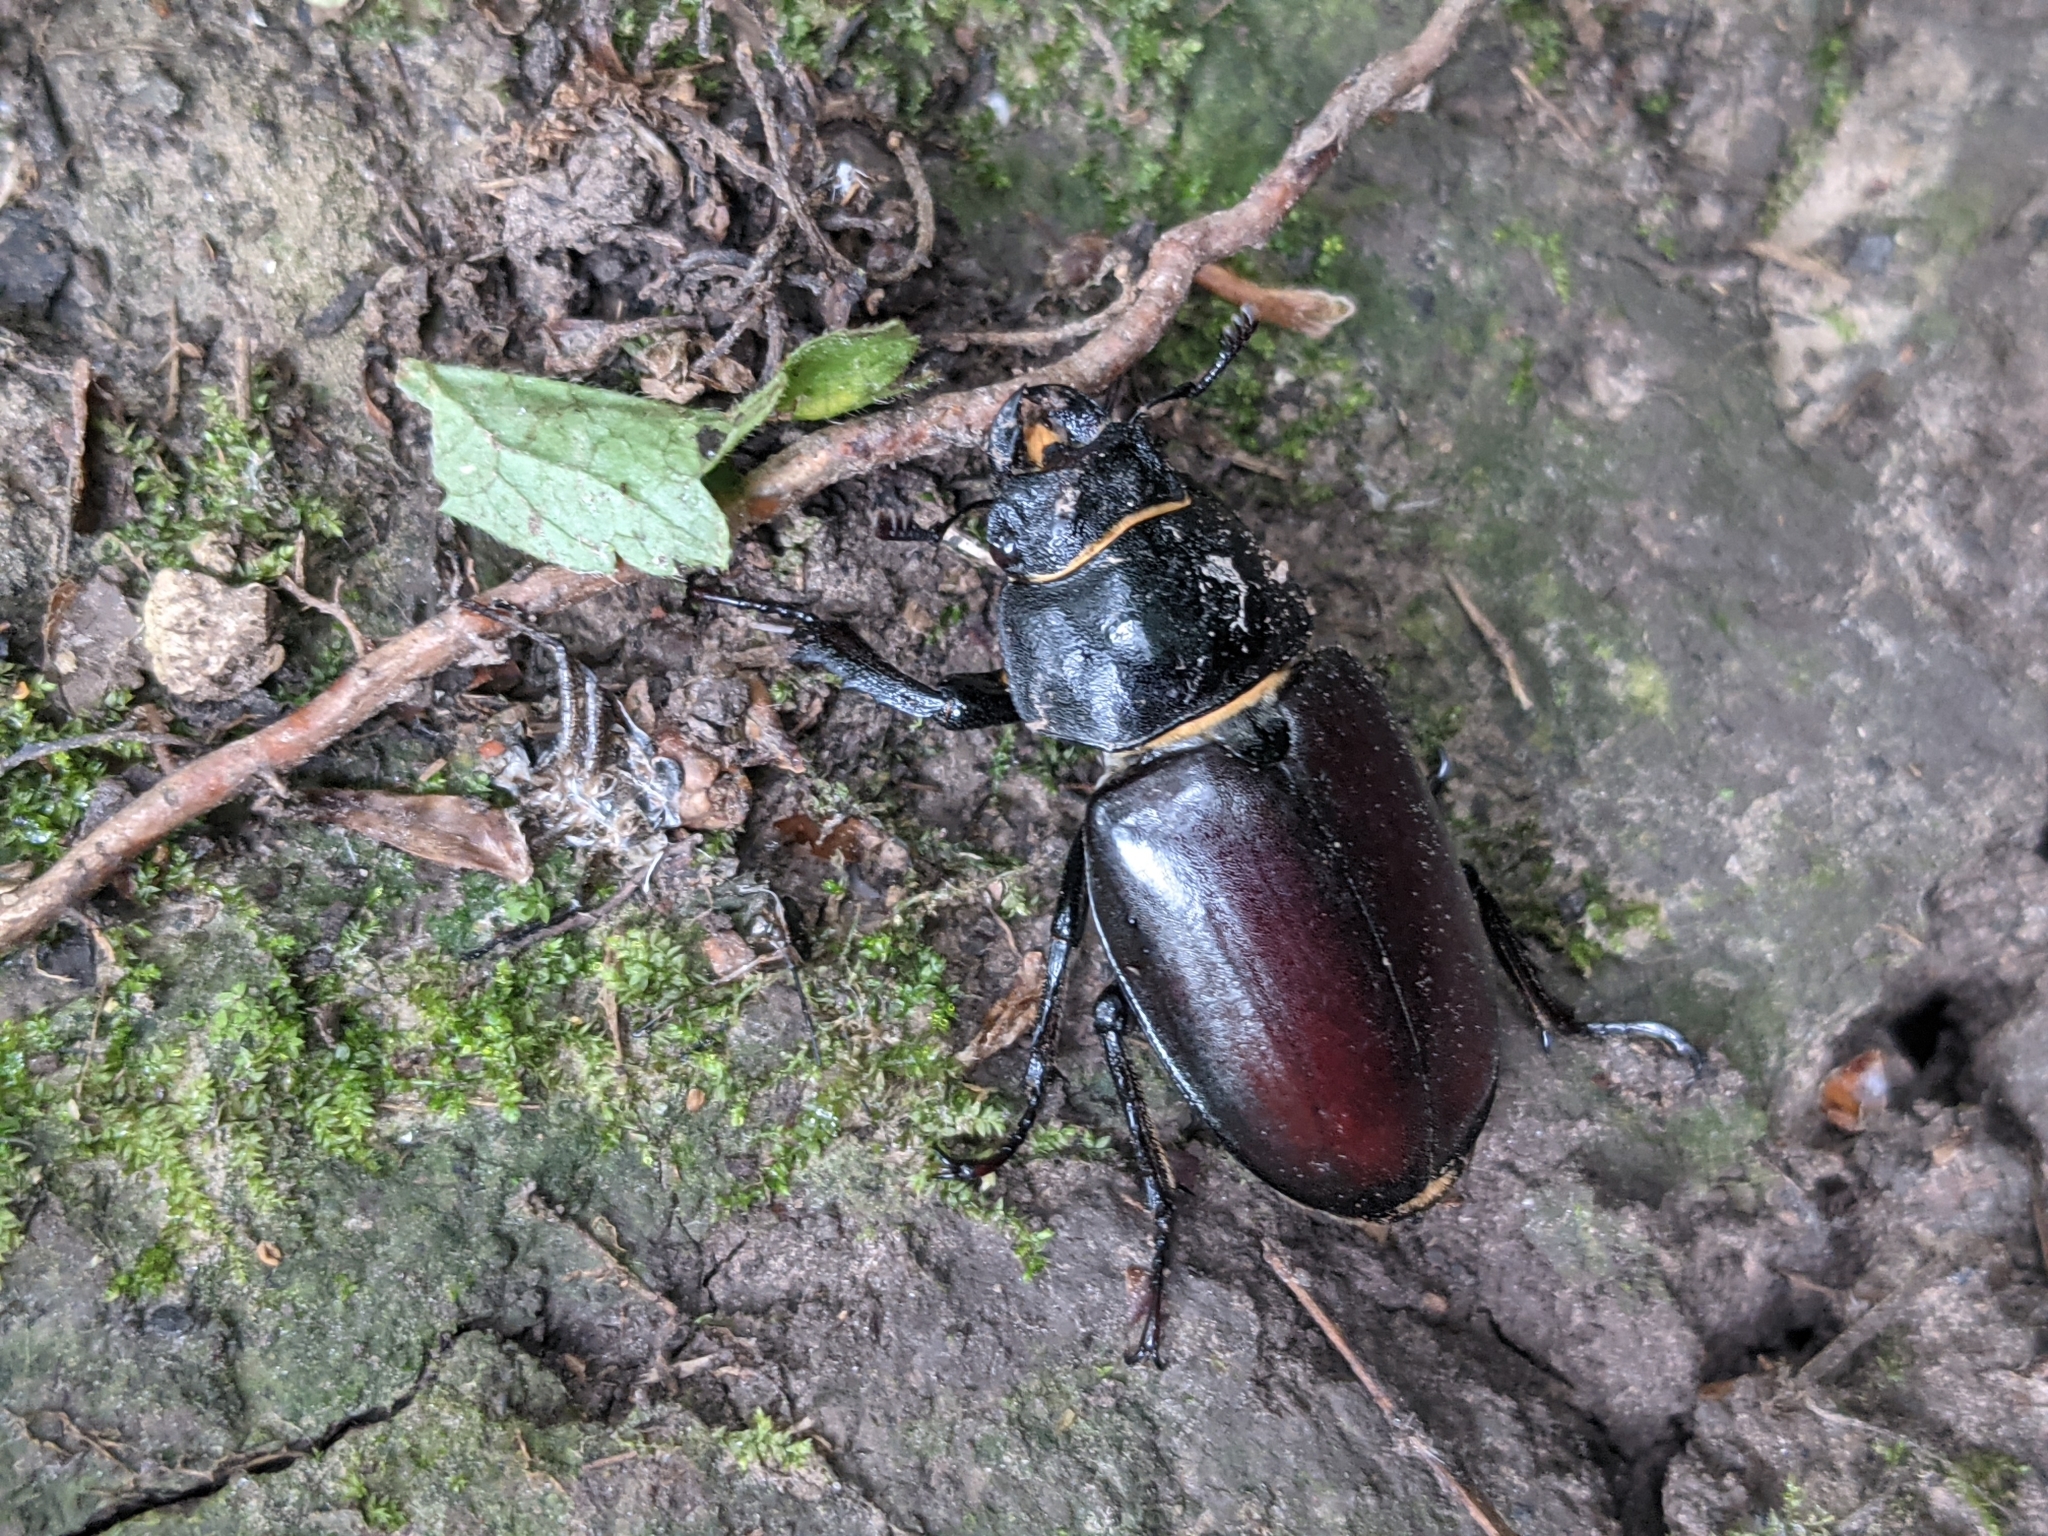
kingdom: Animalia
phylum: Arthropoda
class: Insecta
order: Coleoptera
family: Lucanidae
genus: Lucanus
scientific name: Lucanus cervus
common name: Stag beetle
